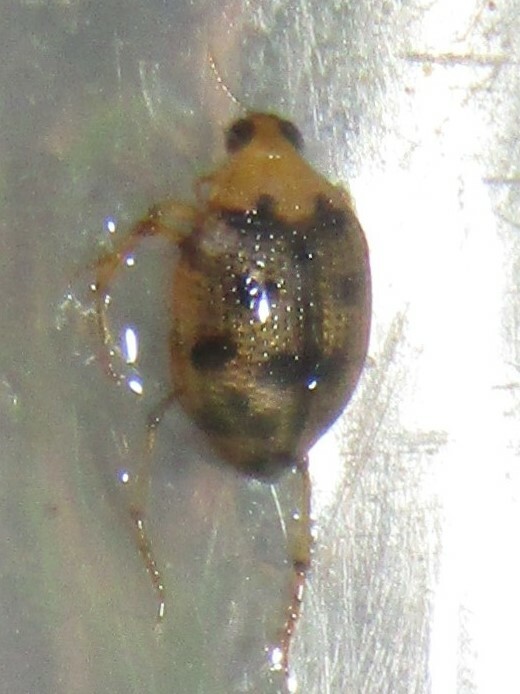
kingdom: Animalia
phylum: Arthropoda
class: Insecta
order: Coleoptera
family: Haliplidae
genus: Peltodytes
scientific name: Peltodytes
